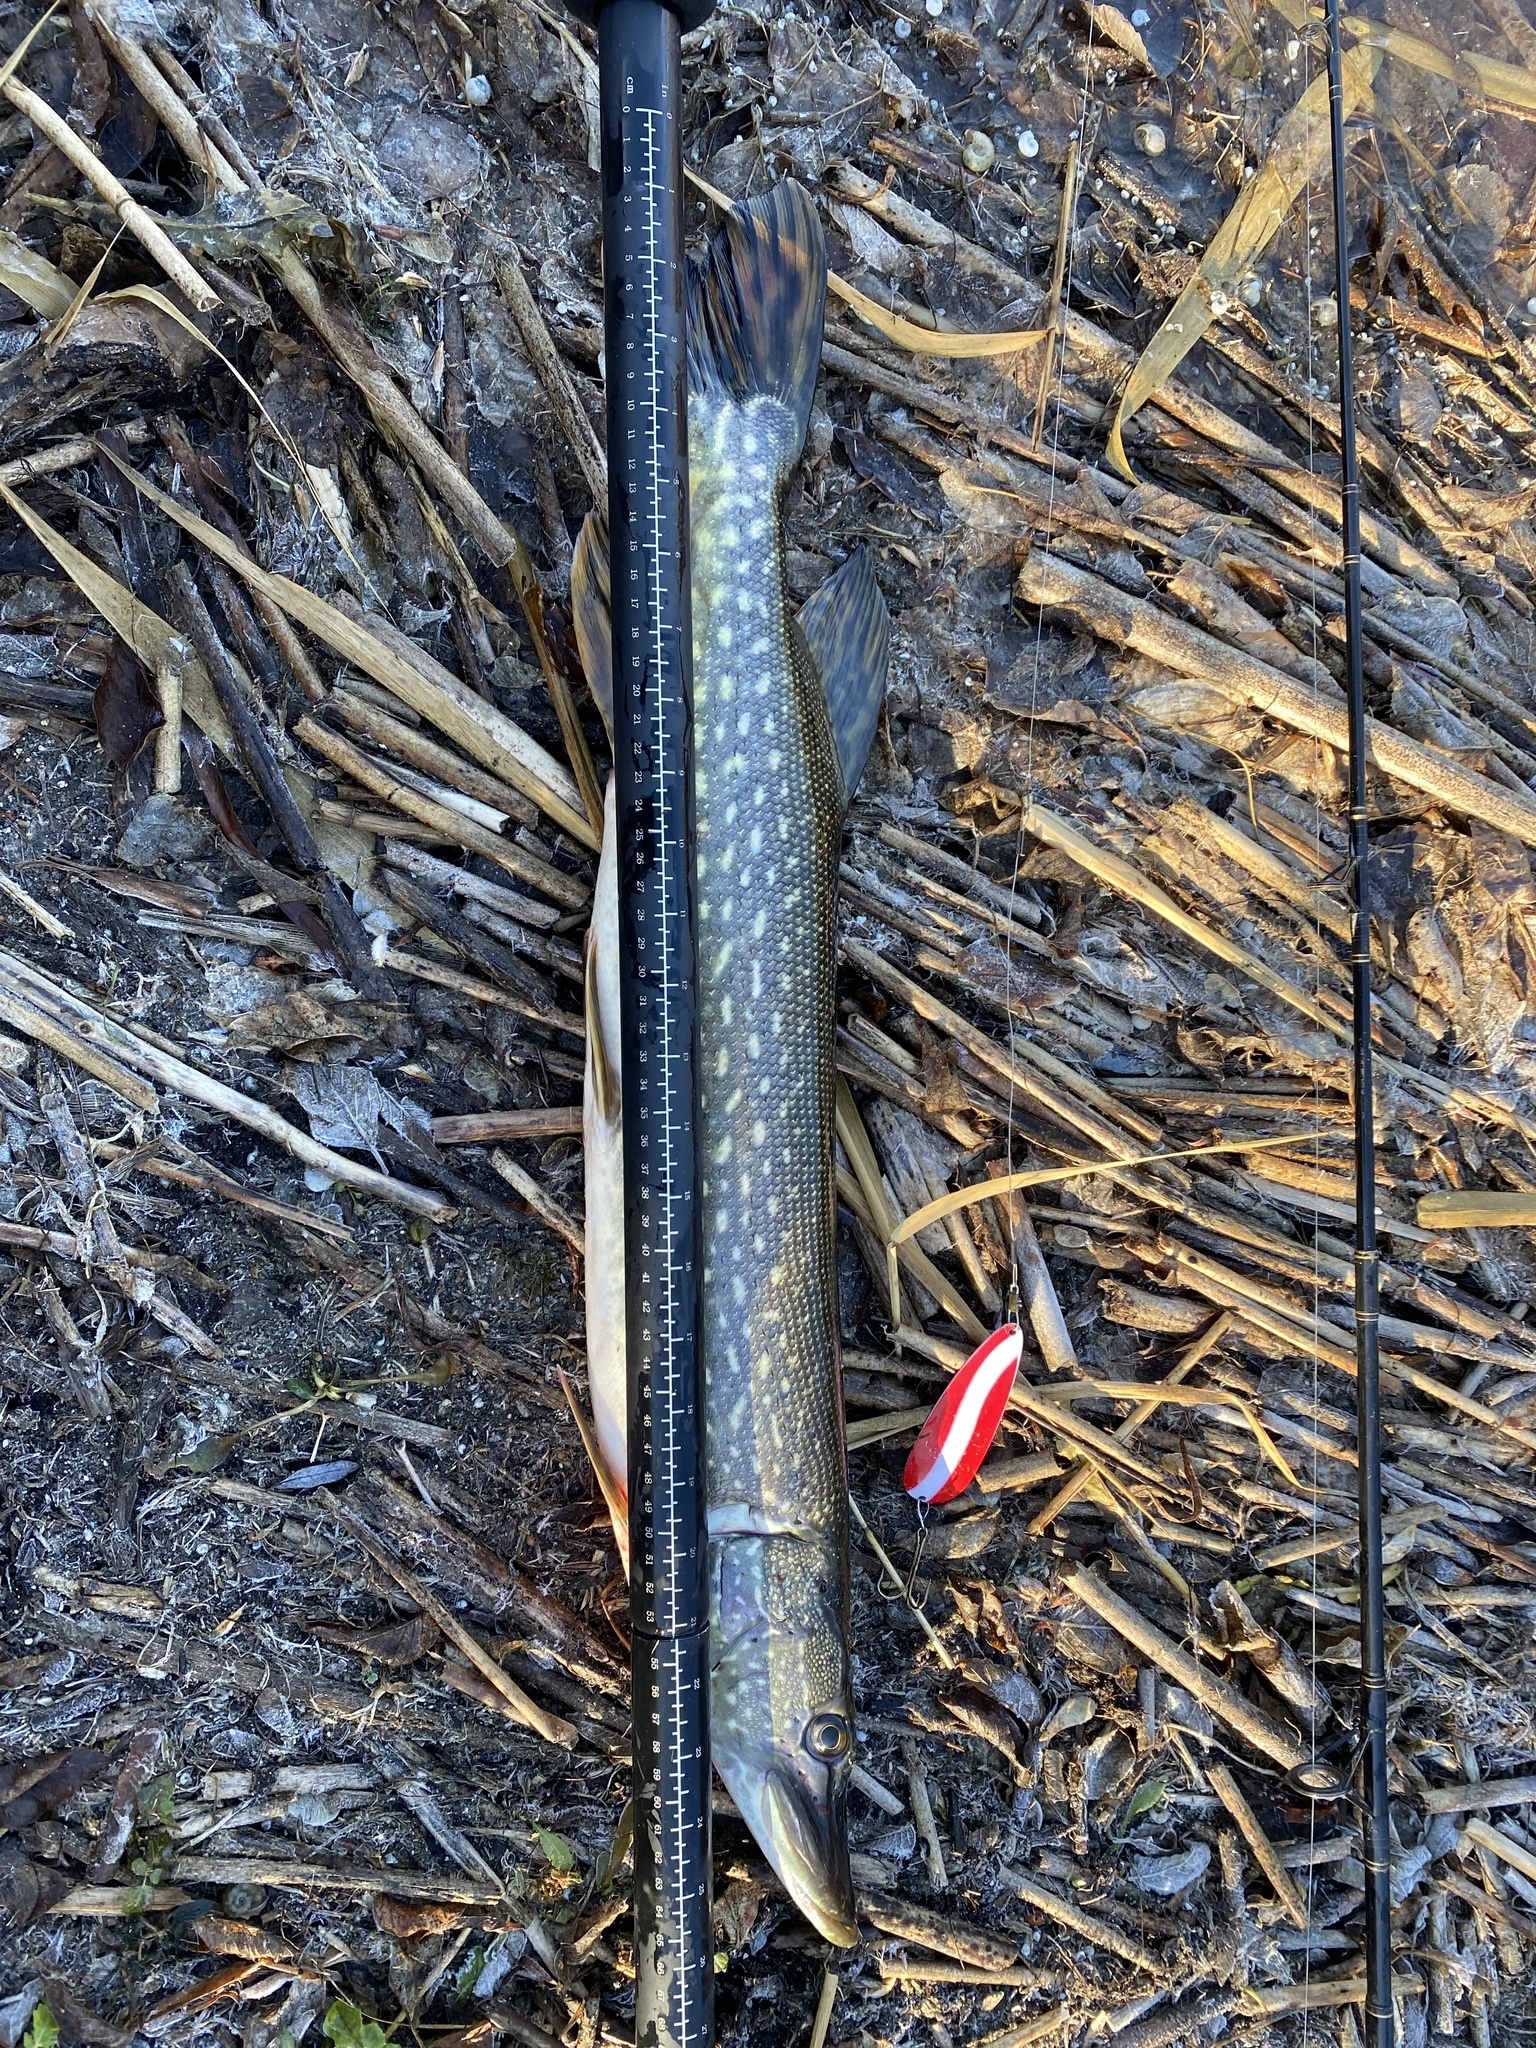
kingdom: Animalia
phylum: Chordata
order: Esociformes
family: Esocidae
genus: Esox
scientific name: Esox lucius
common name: Northern pike
